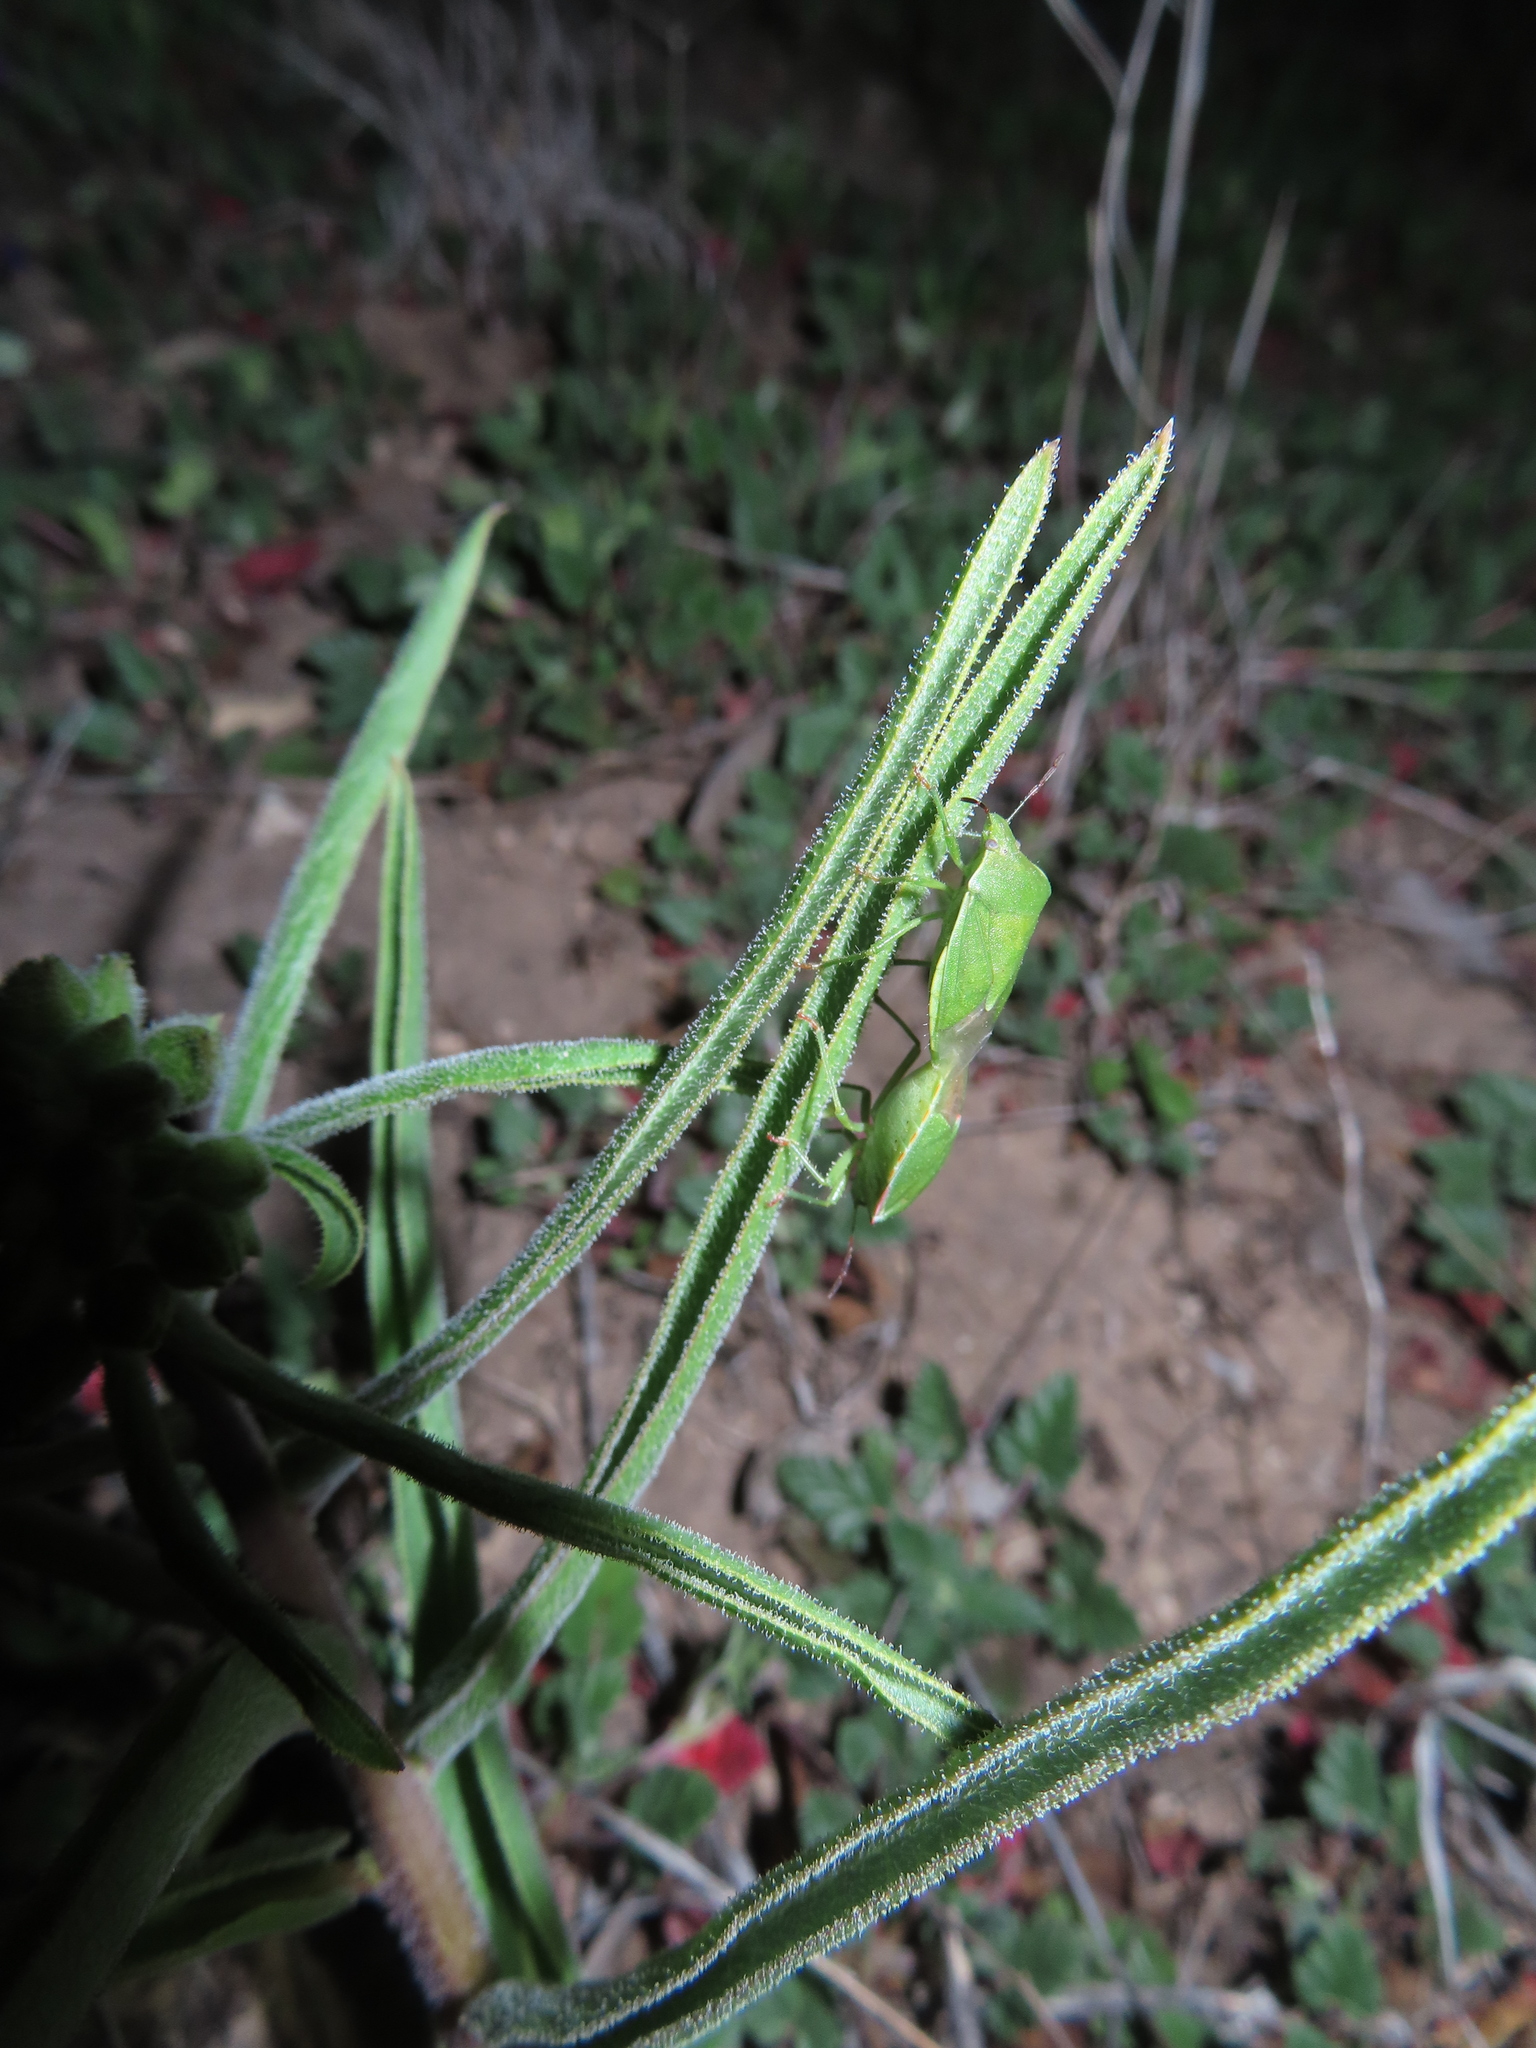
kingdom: Animalia
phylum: Arthropoda
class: Insecta
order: Hemiptera
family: Pentatomidae
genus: Thyanta
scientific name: Thyanta custator
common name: Stink bug
